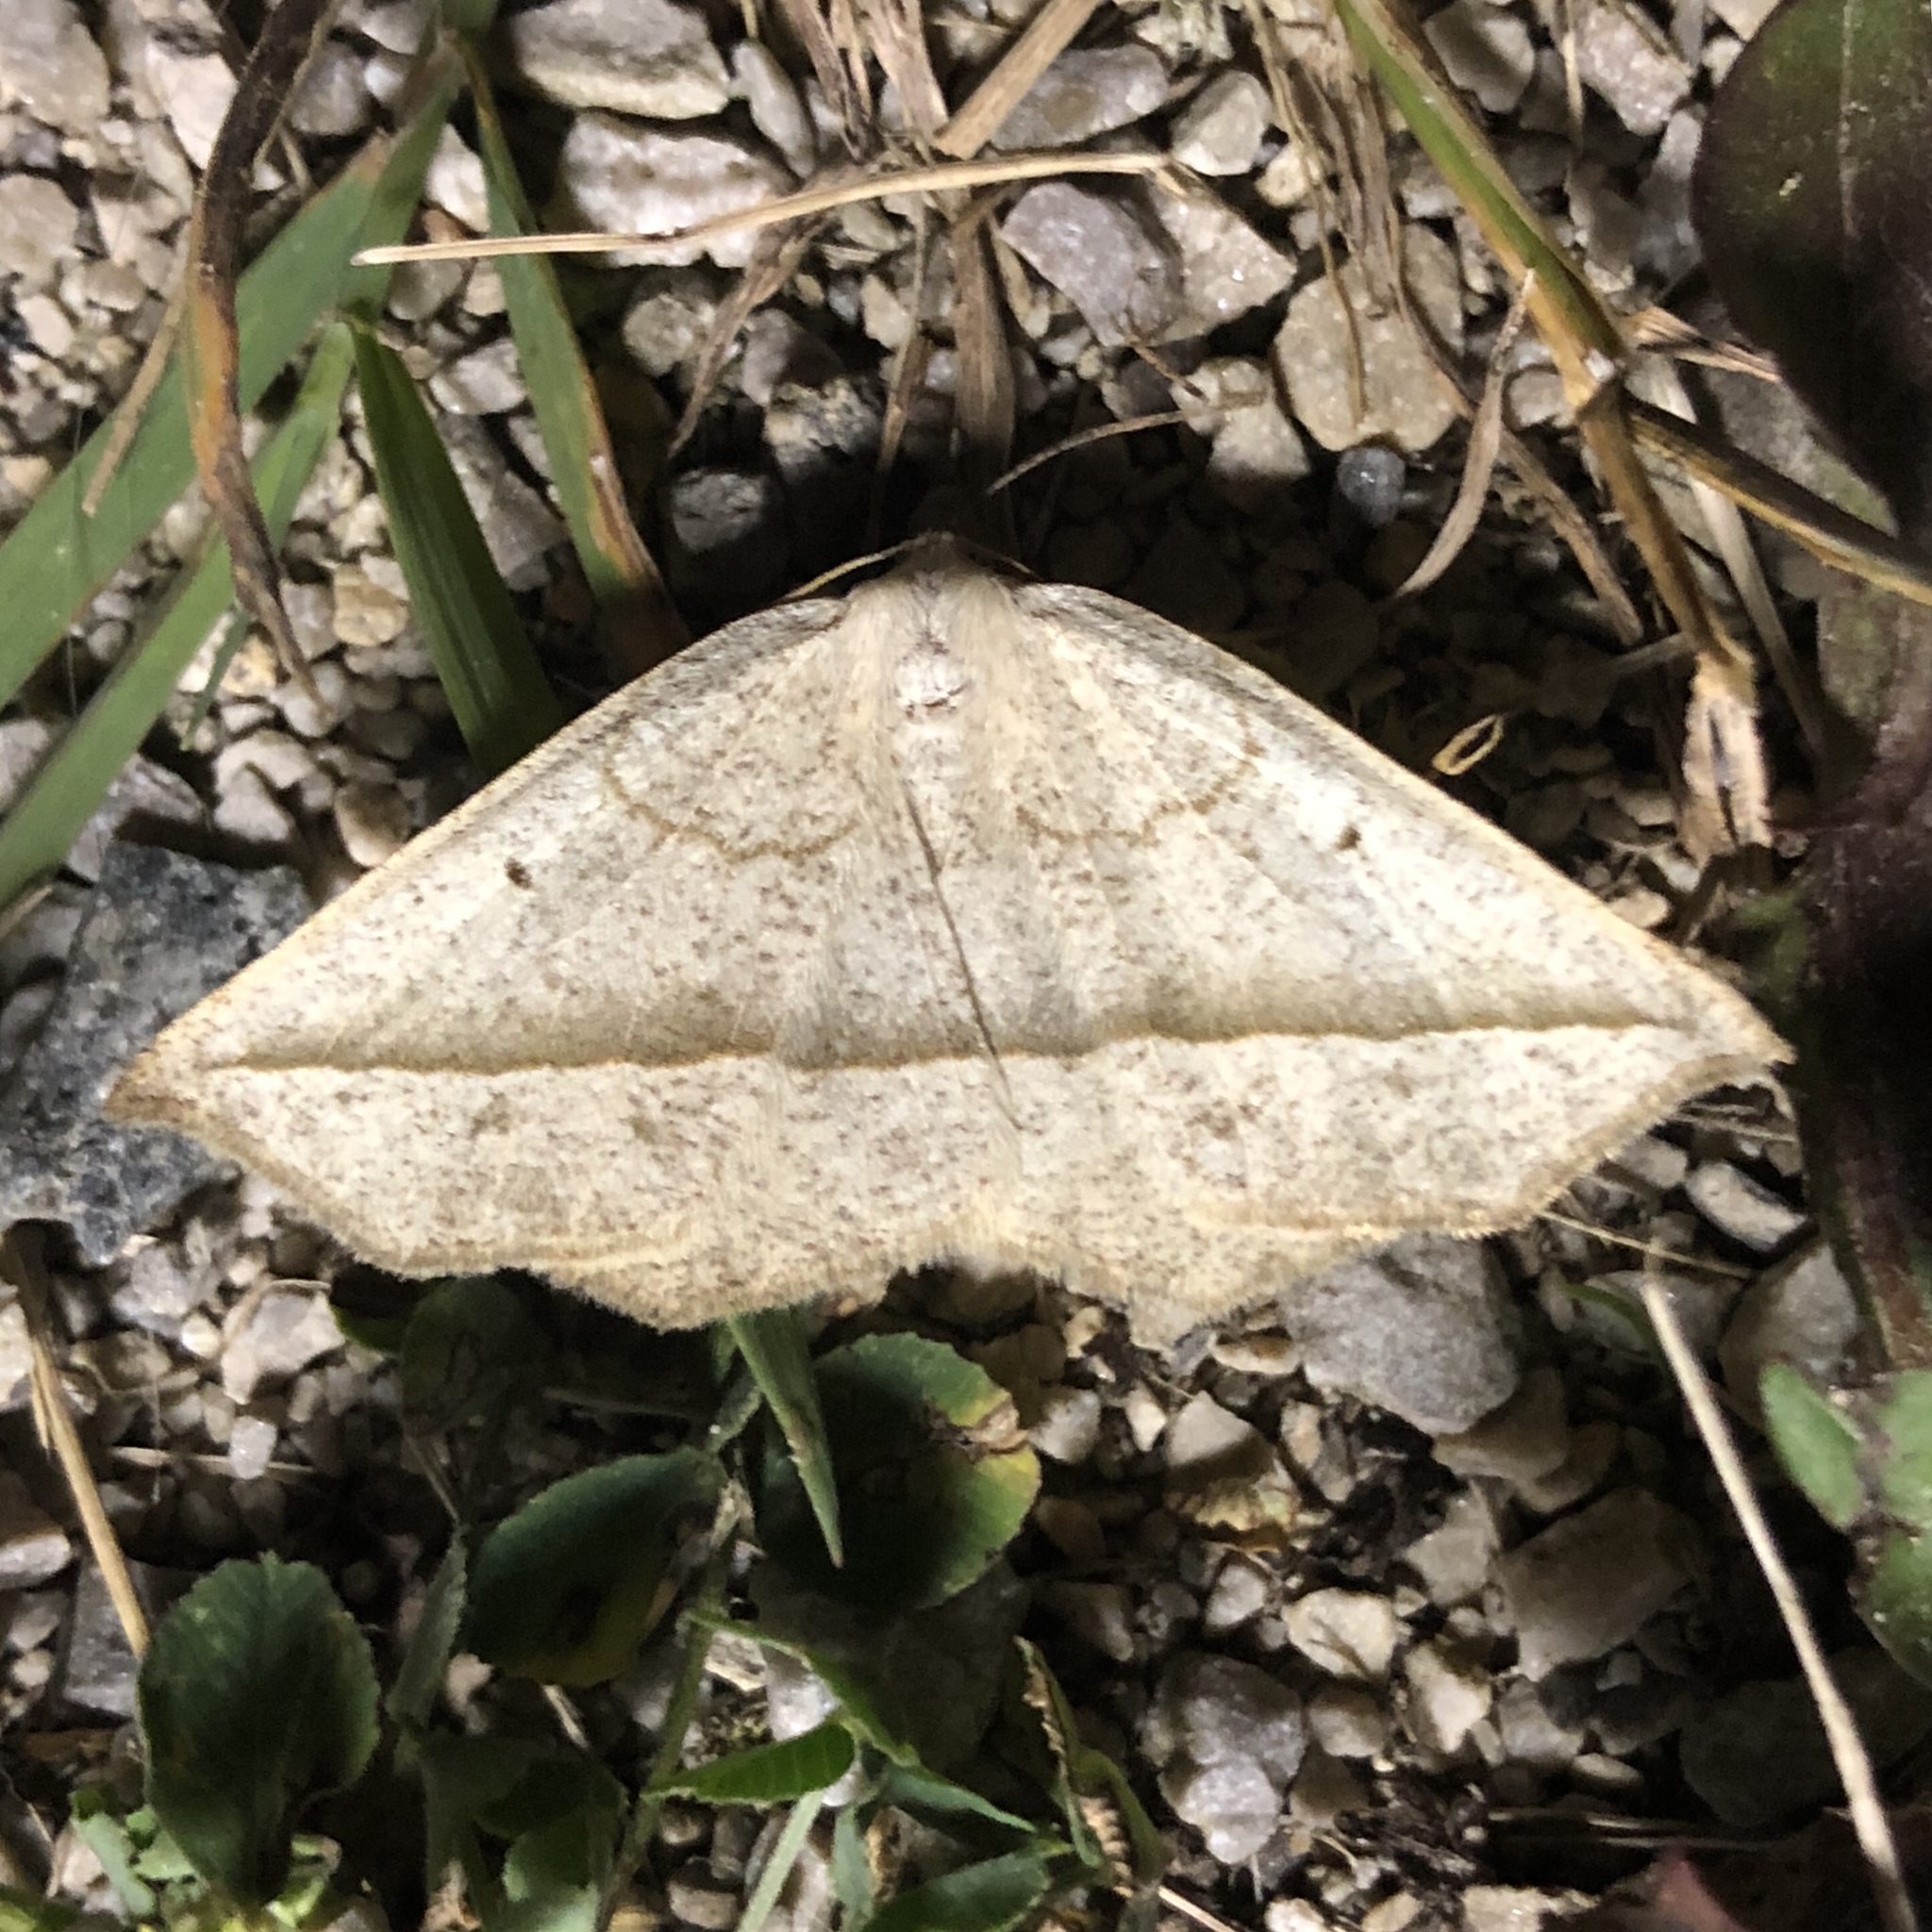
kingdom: Animalia
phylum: Arthropoda
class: Insecta
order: Lepidoptera
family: Geometridae
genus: Eusarca
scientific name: Eusarca confusaria
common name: Confused eusarca
